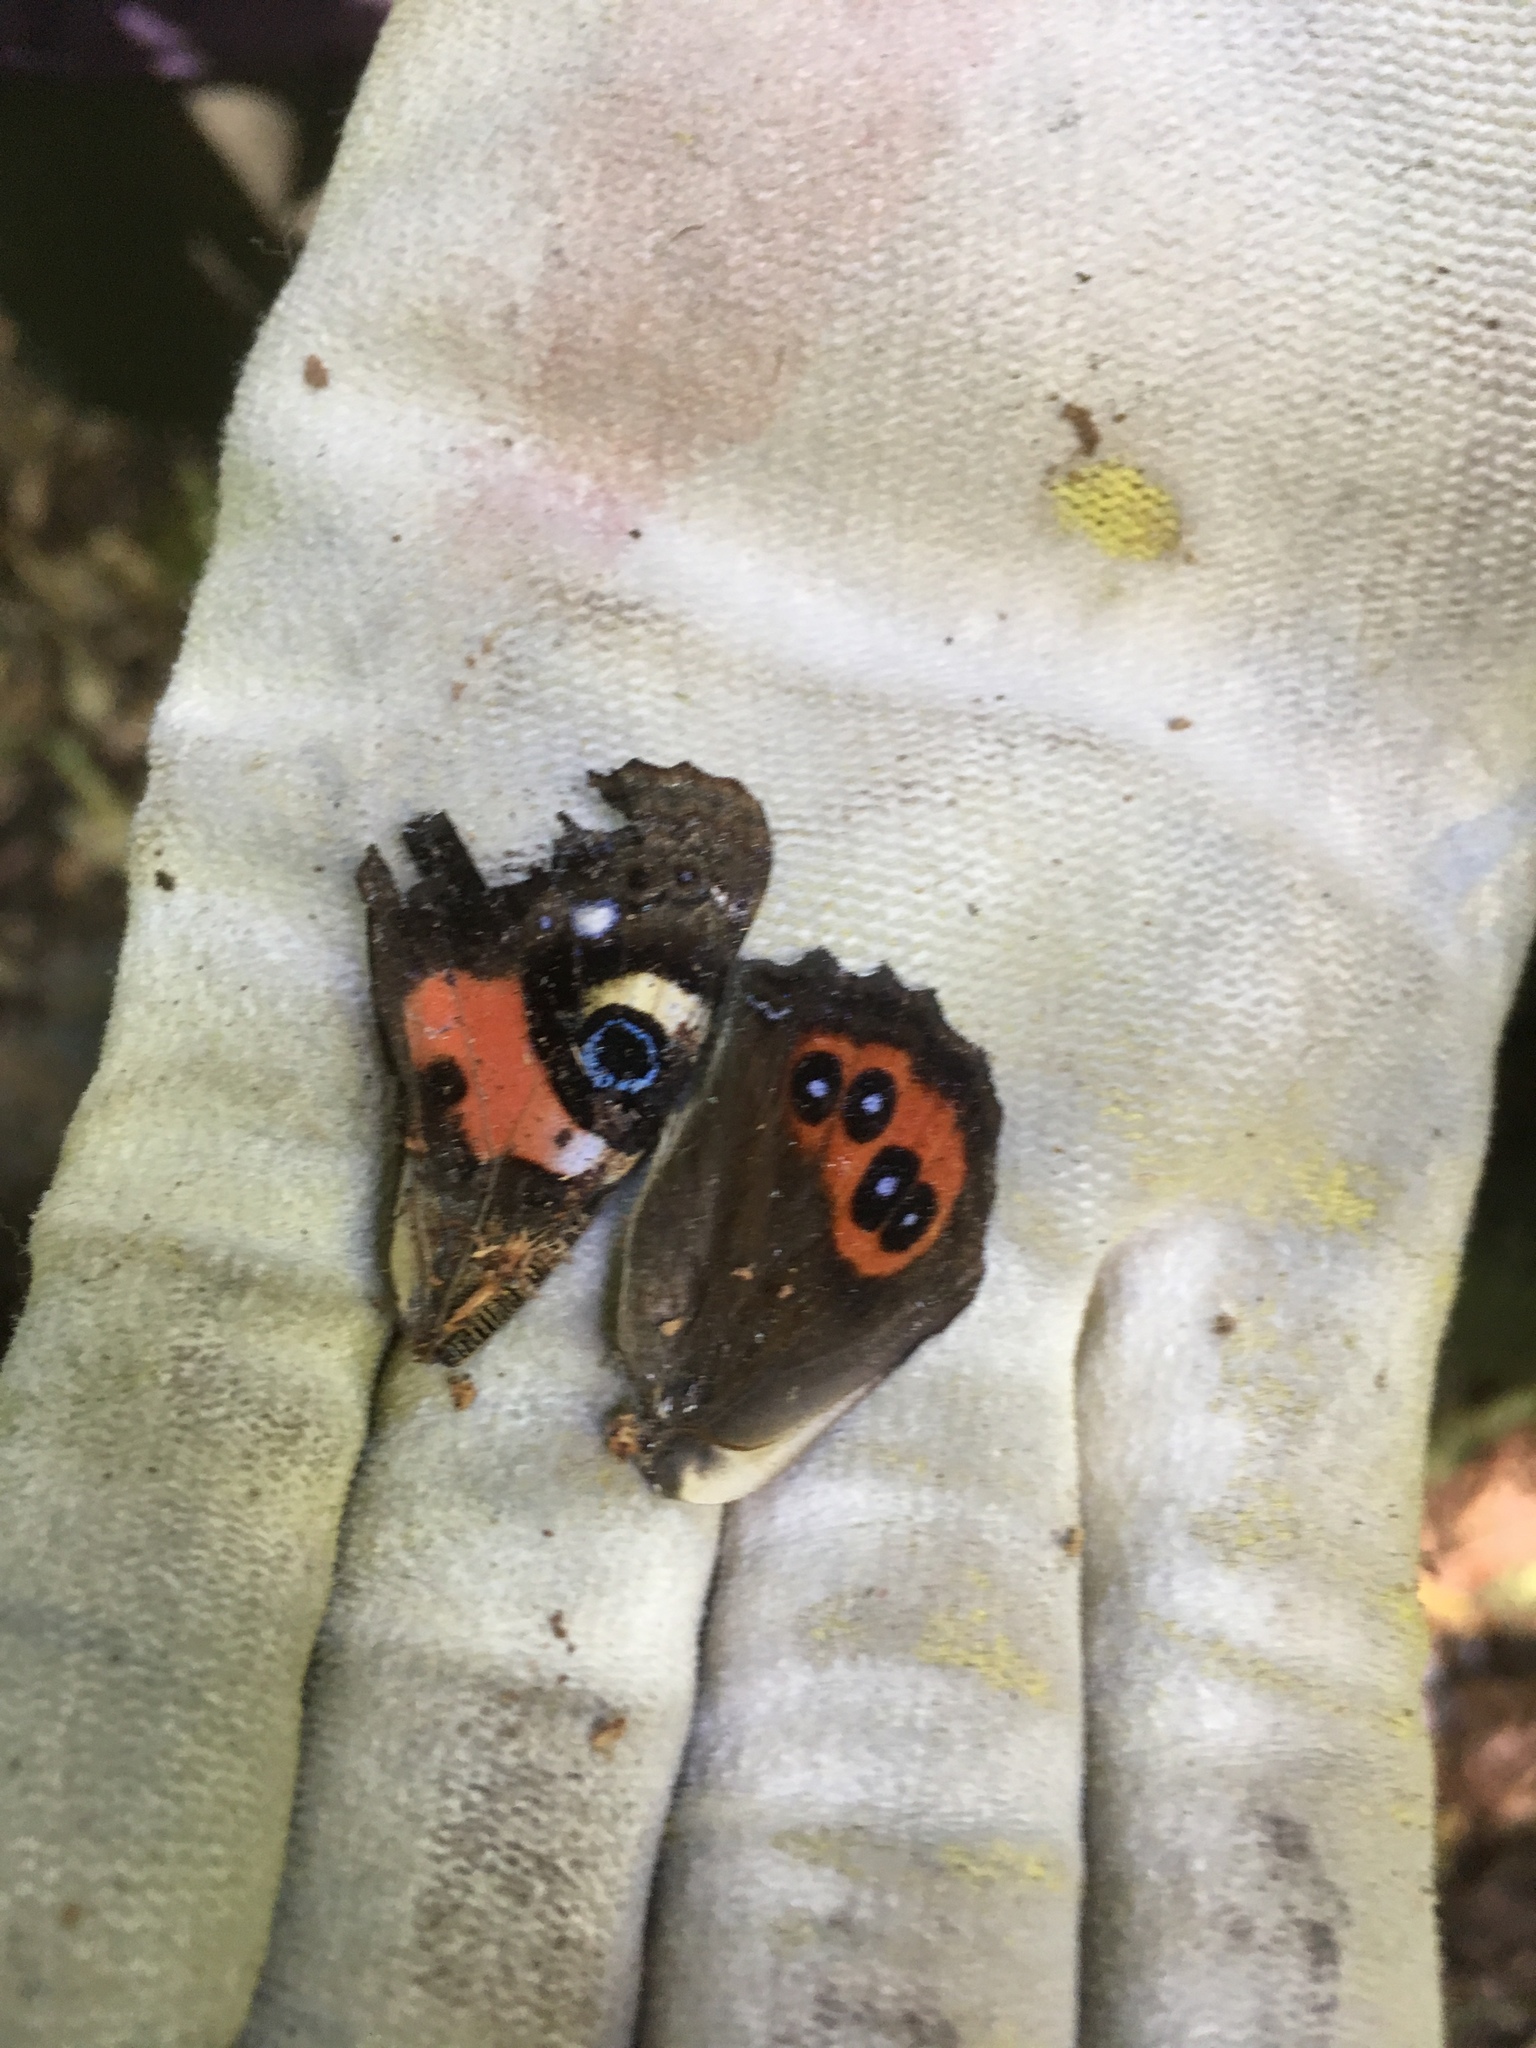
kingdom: Animalia
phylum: Arthropoda
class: Insecta
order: Lepidoptera
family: Nymphalidae
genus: Vanessa
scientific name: Vanessa gonerilla
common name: New zealand red admiral
